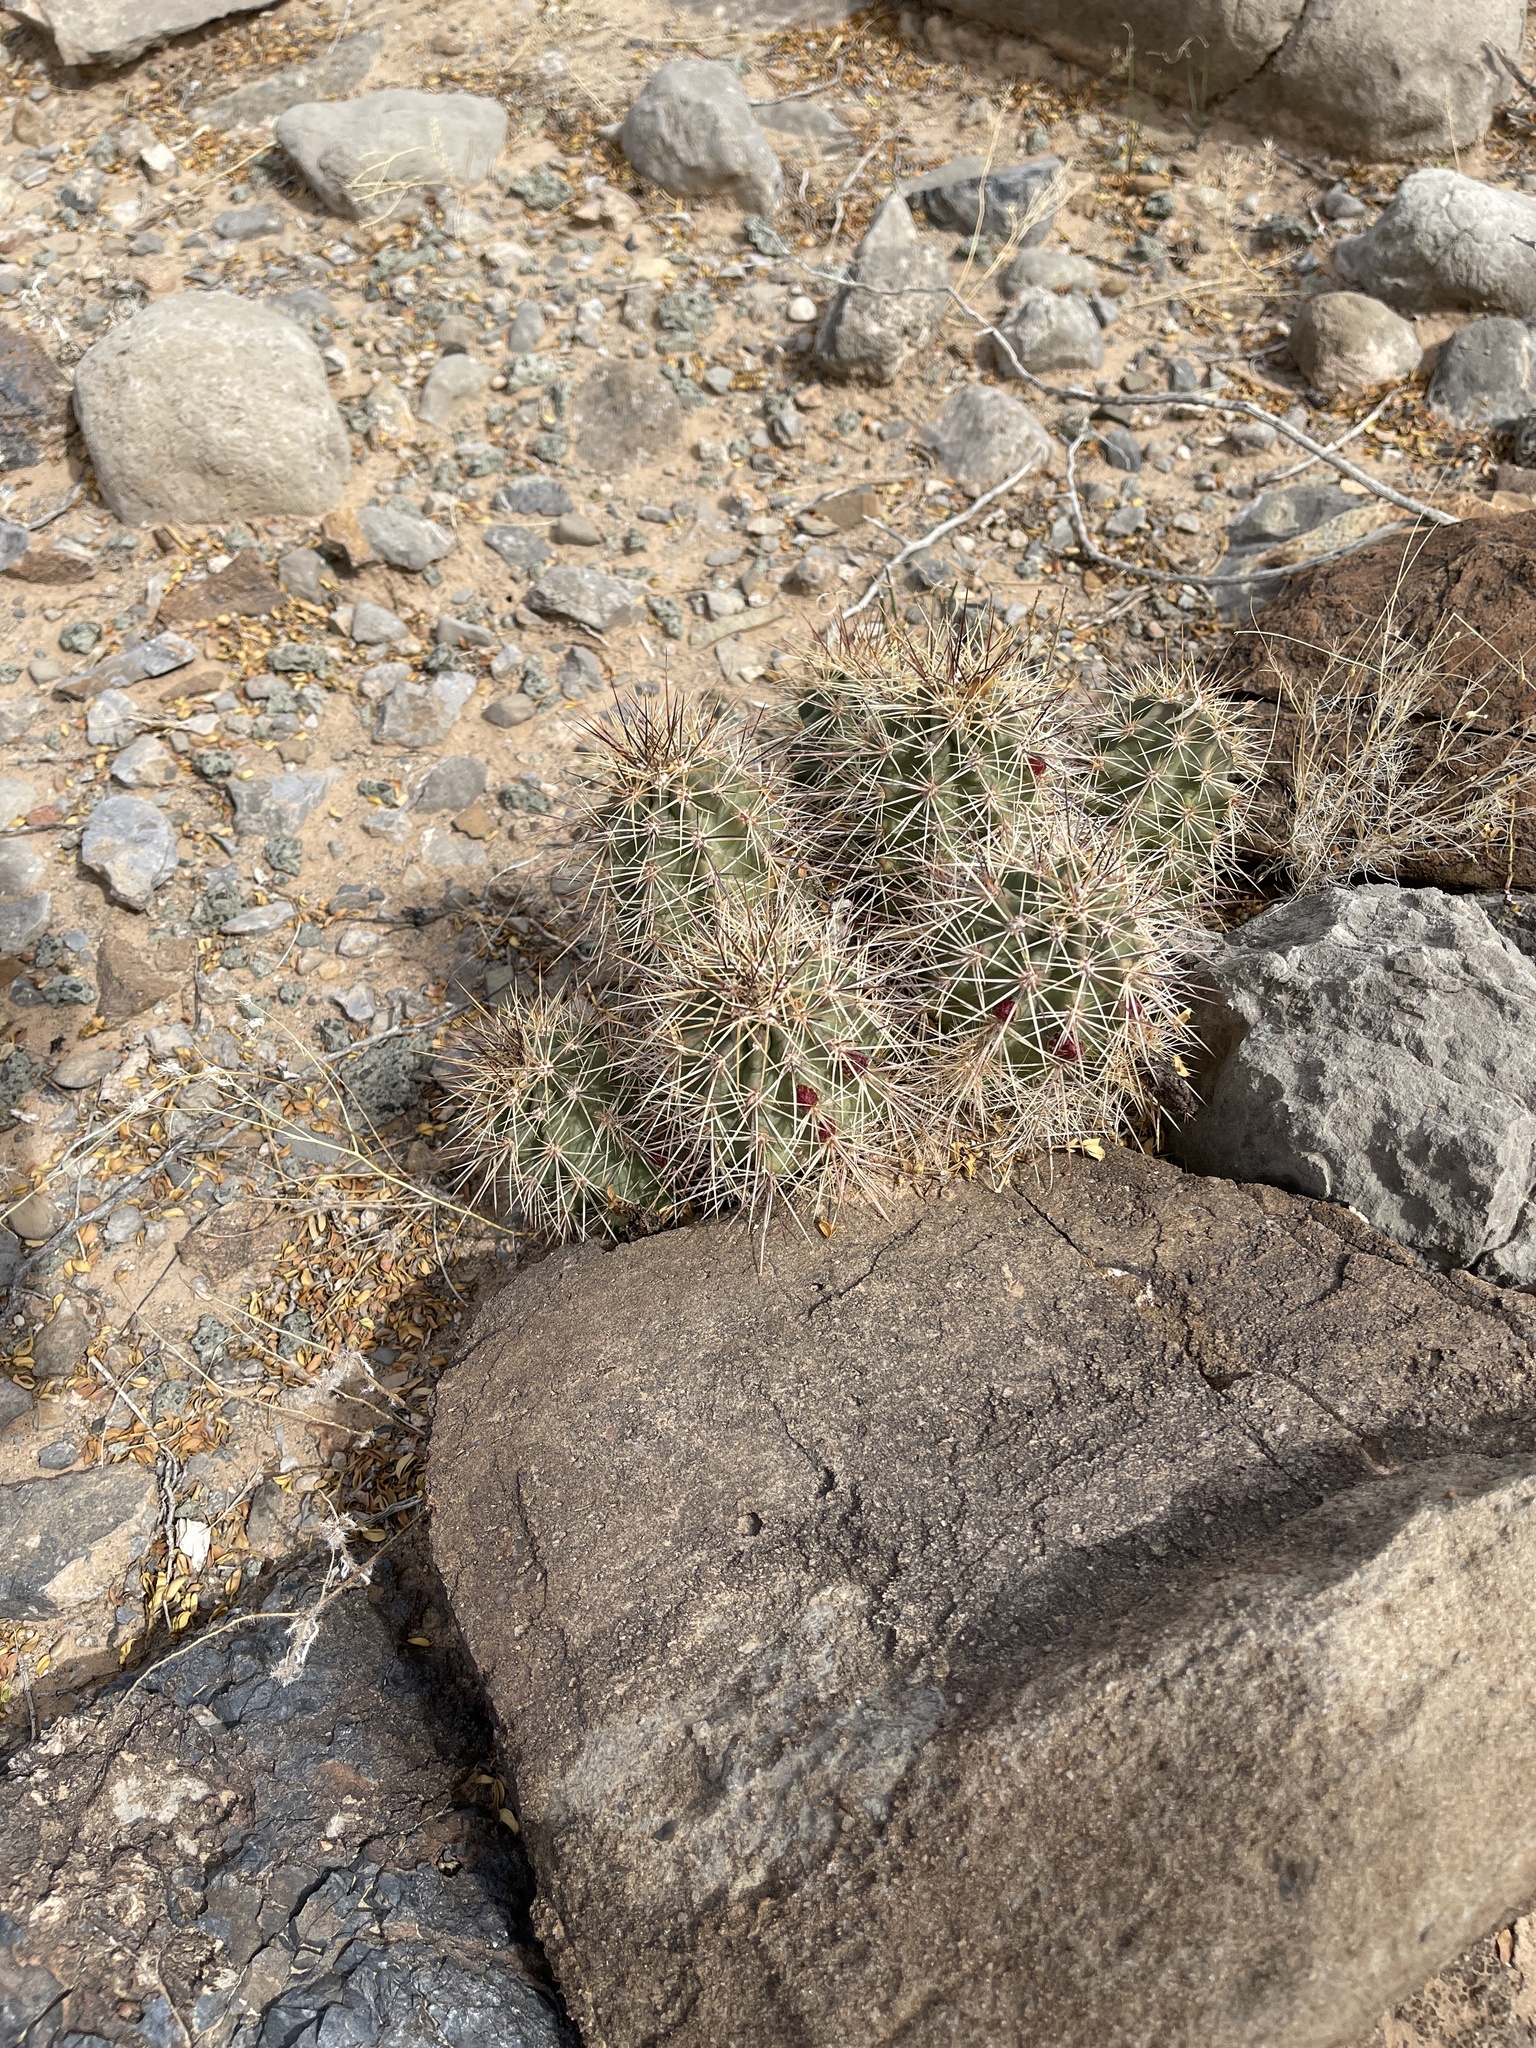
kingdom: Plantae
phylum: Tracheophyta
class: Magnoliopsida
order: Caryophyllales
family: Cactaceae
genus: Echinocereus
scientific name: Echinocereus coccineus
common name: Scarlet hedgehog cactus
